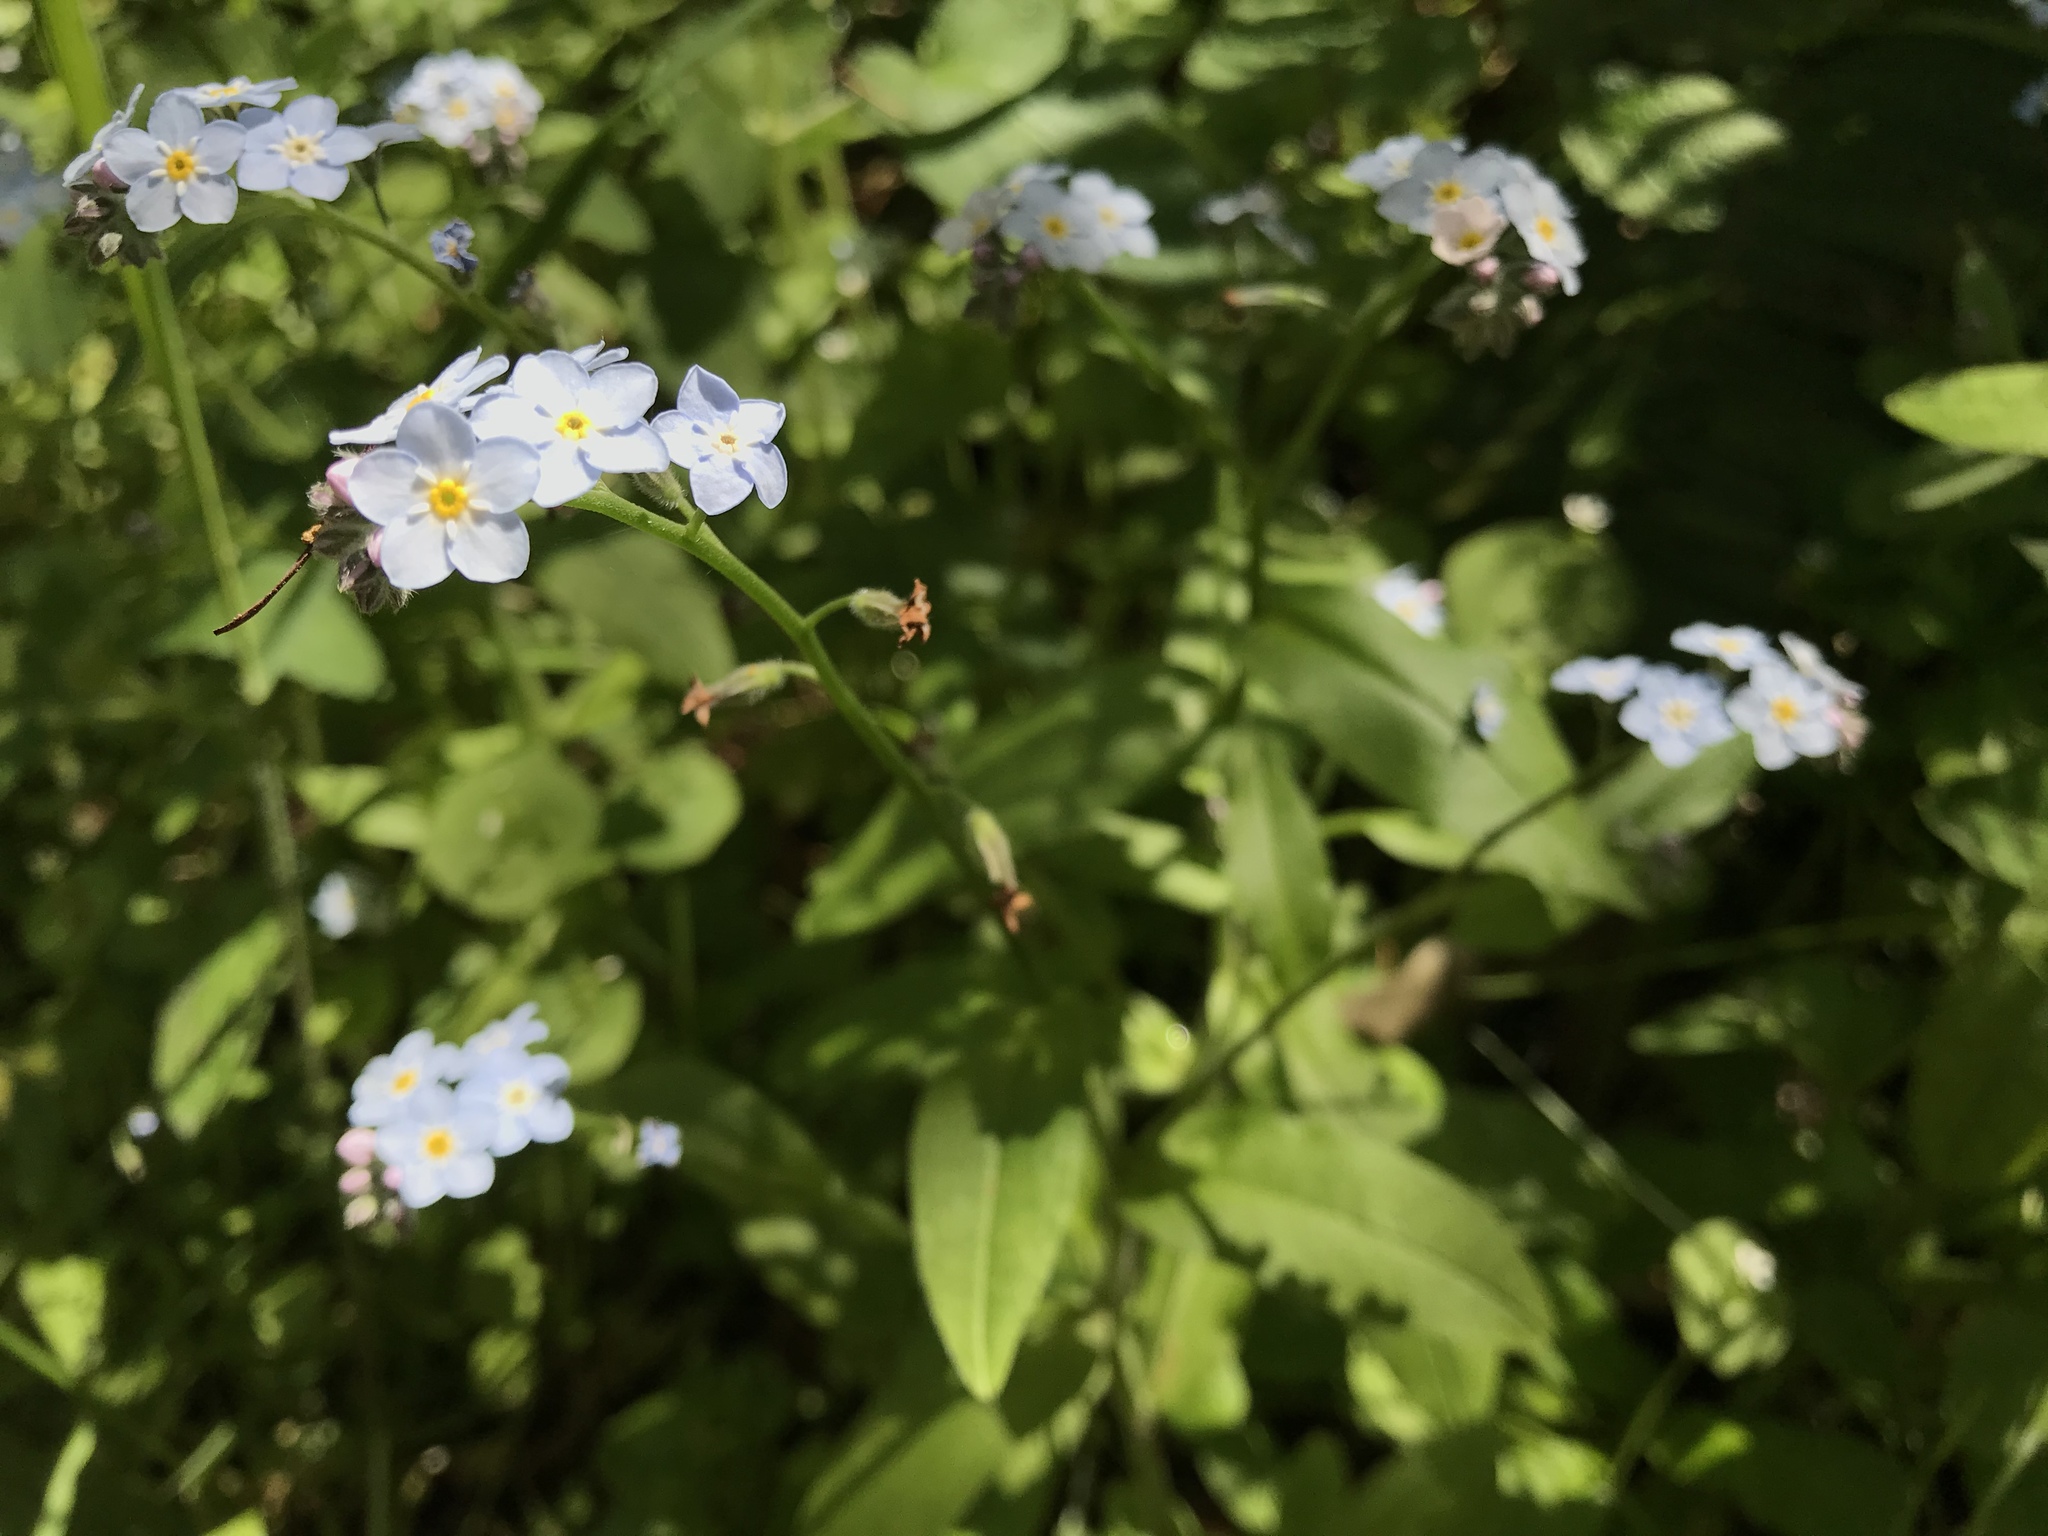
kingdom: Plantae
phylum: Tracheophyta
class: Magnoliopsida
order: Boraginales
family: Boraginaceae
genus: Myosotis
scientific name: Myosotis latifolia
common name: Broadleaf forget-me-not
